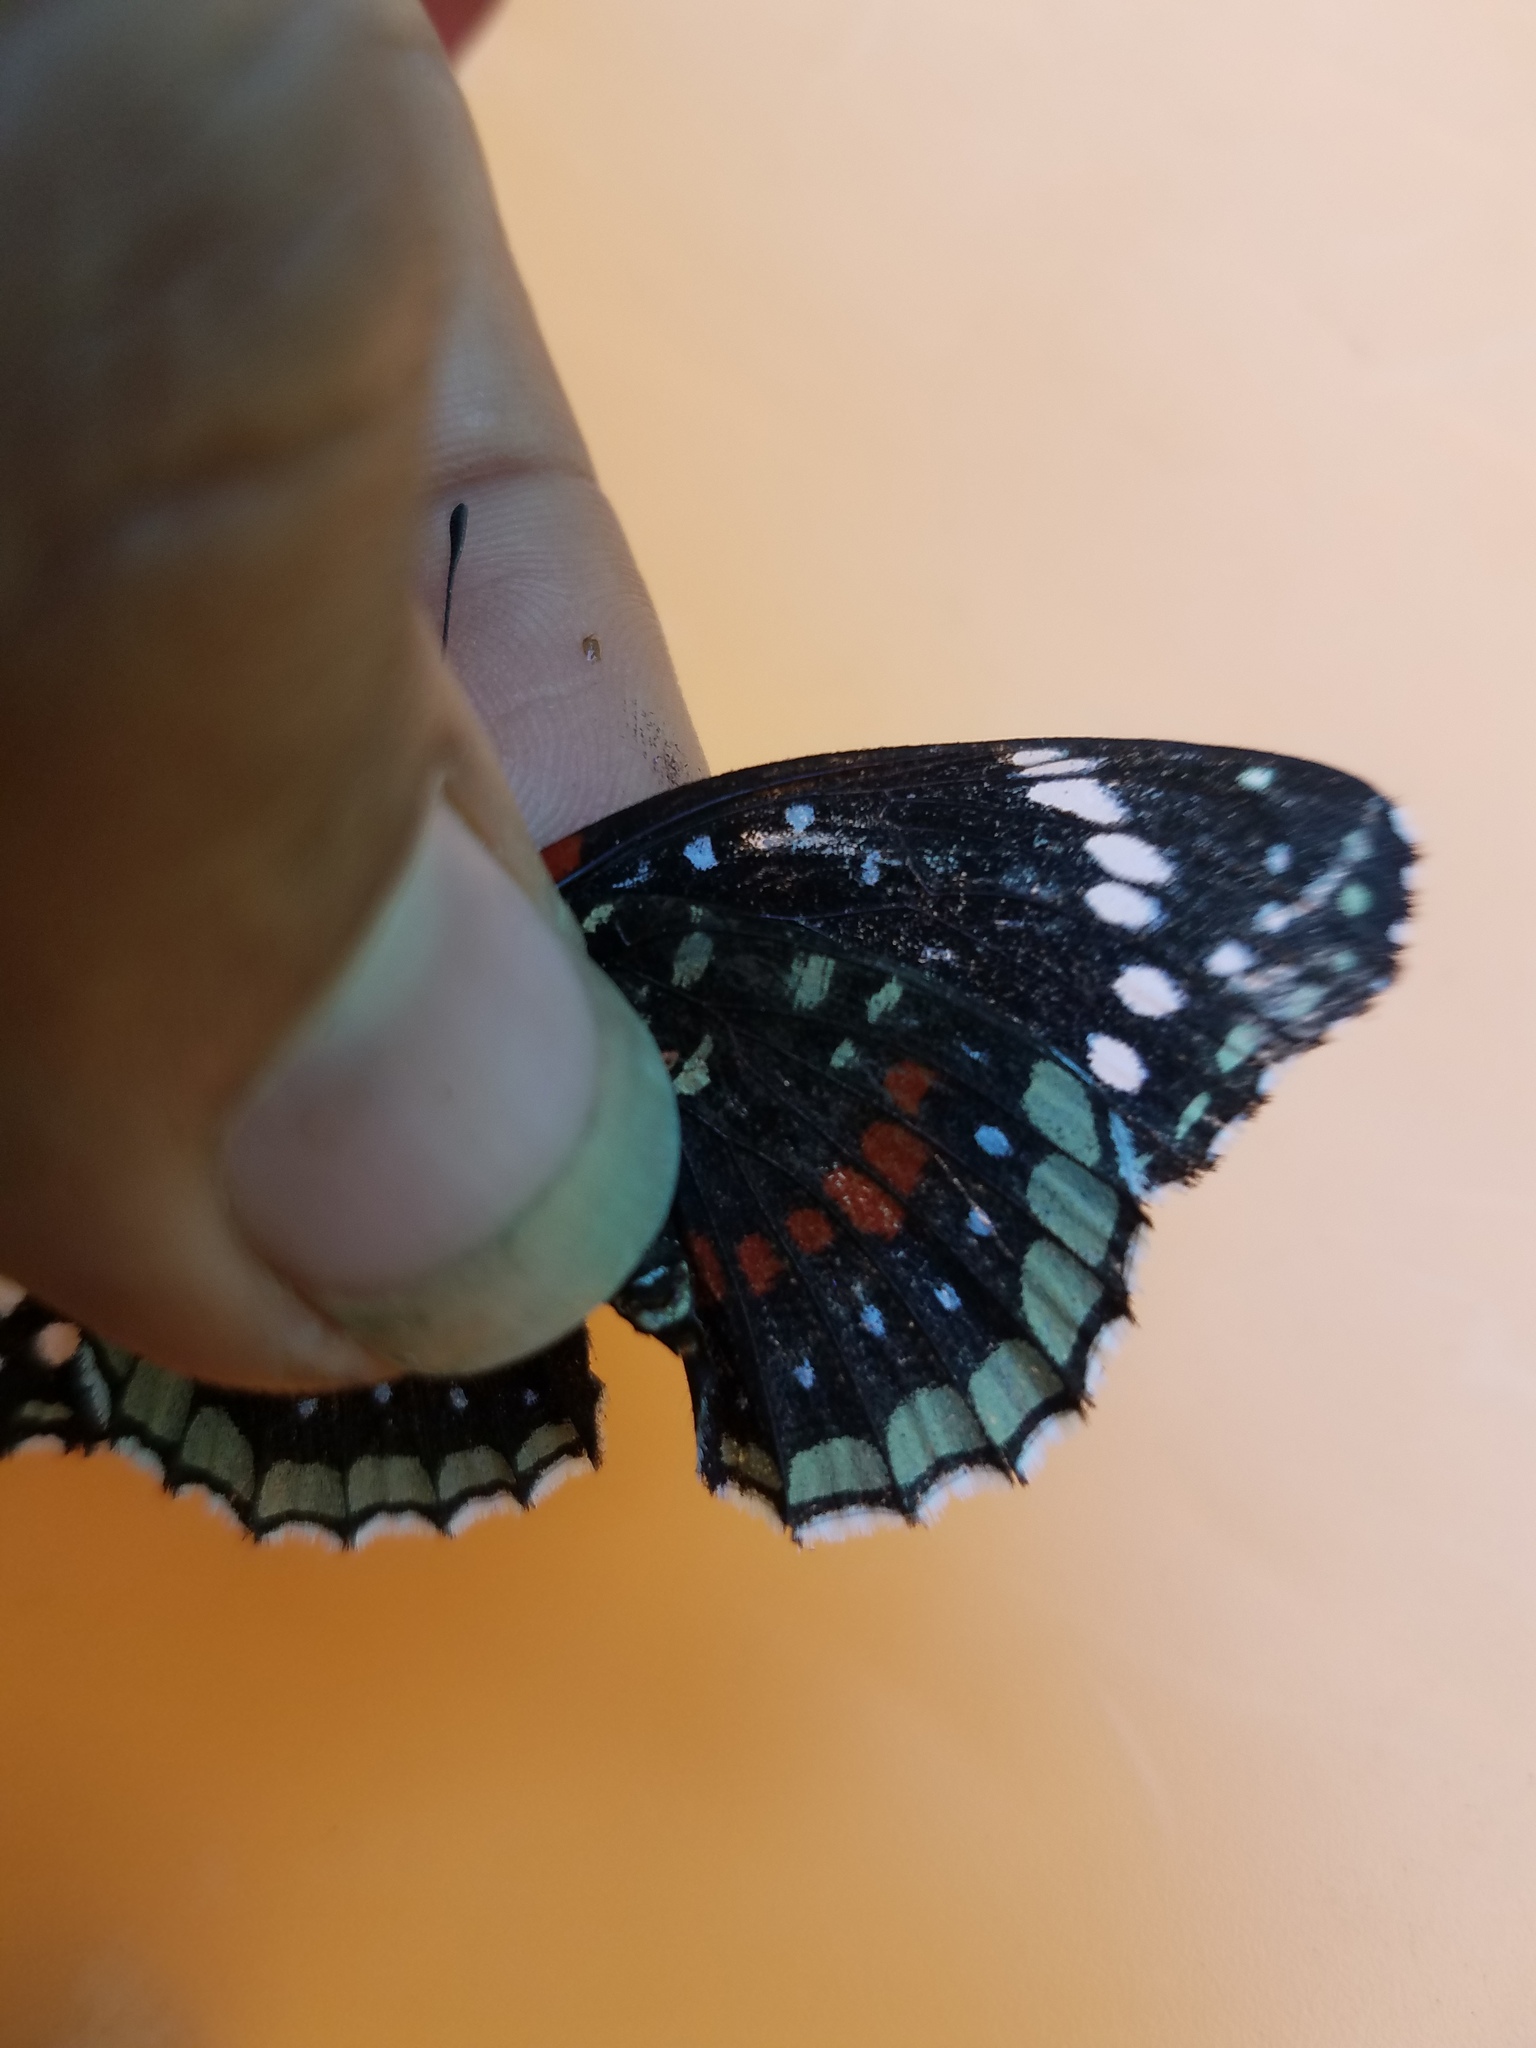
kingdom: Animalia
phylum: Arthropoda
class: Insecta
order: Lepidoptera
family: Nymphalidae
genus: Chlosyne
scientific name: Chlosyne hippodrome
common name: Simple patch
